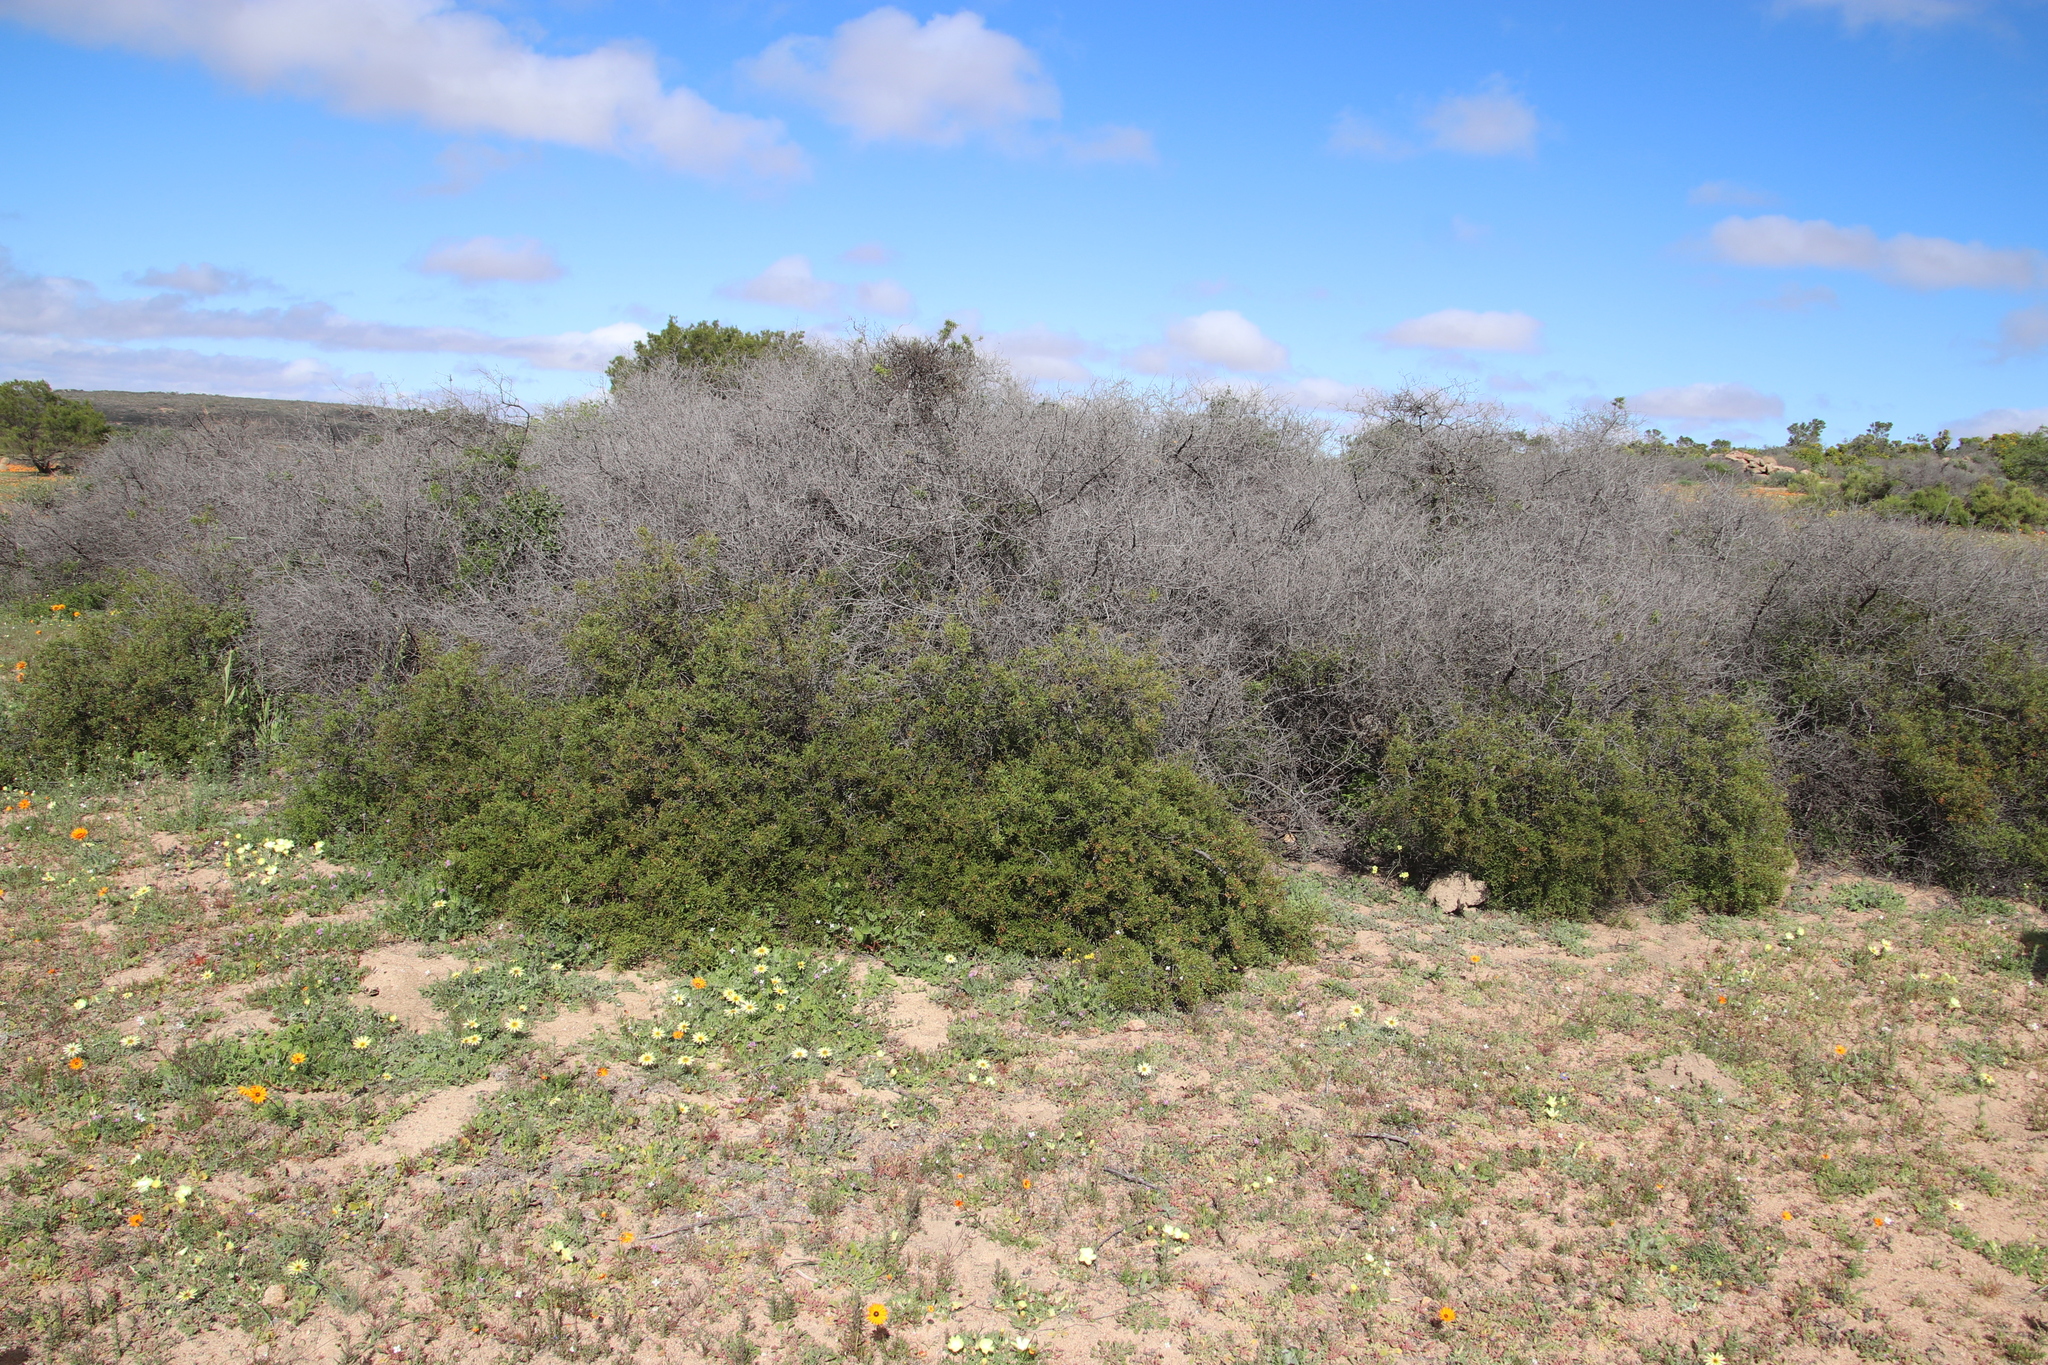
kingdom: Plantae
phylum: Tracheophyta
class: Magnoliopsida
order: Sapindales
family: Anacardiaceae
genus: Searsia
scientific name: Searsia undulata
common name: Namaqua kunibush
